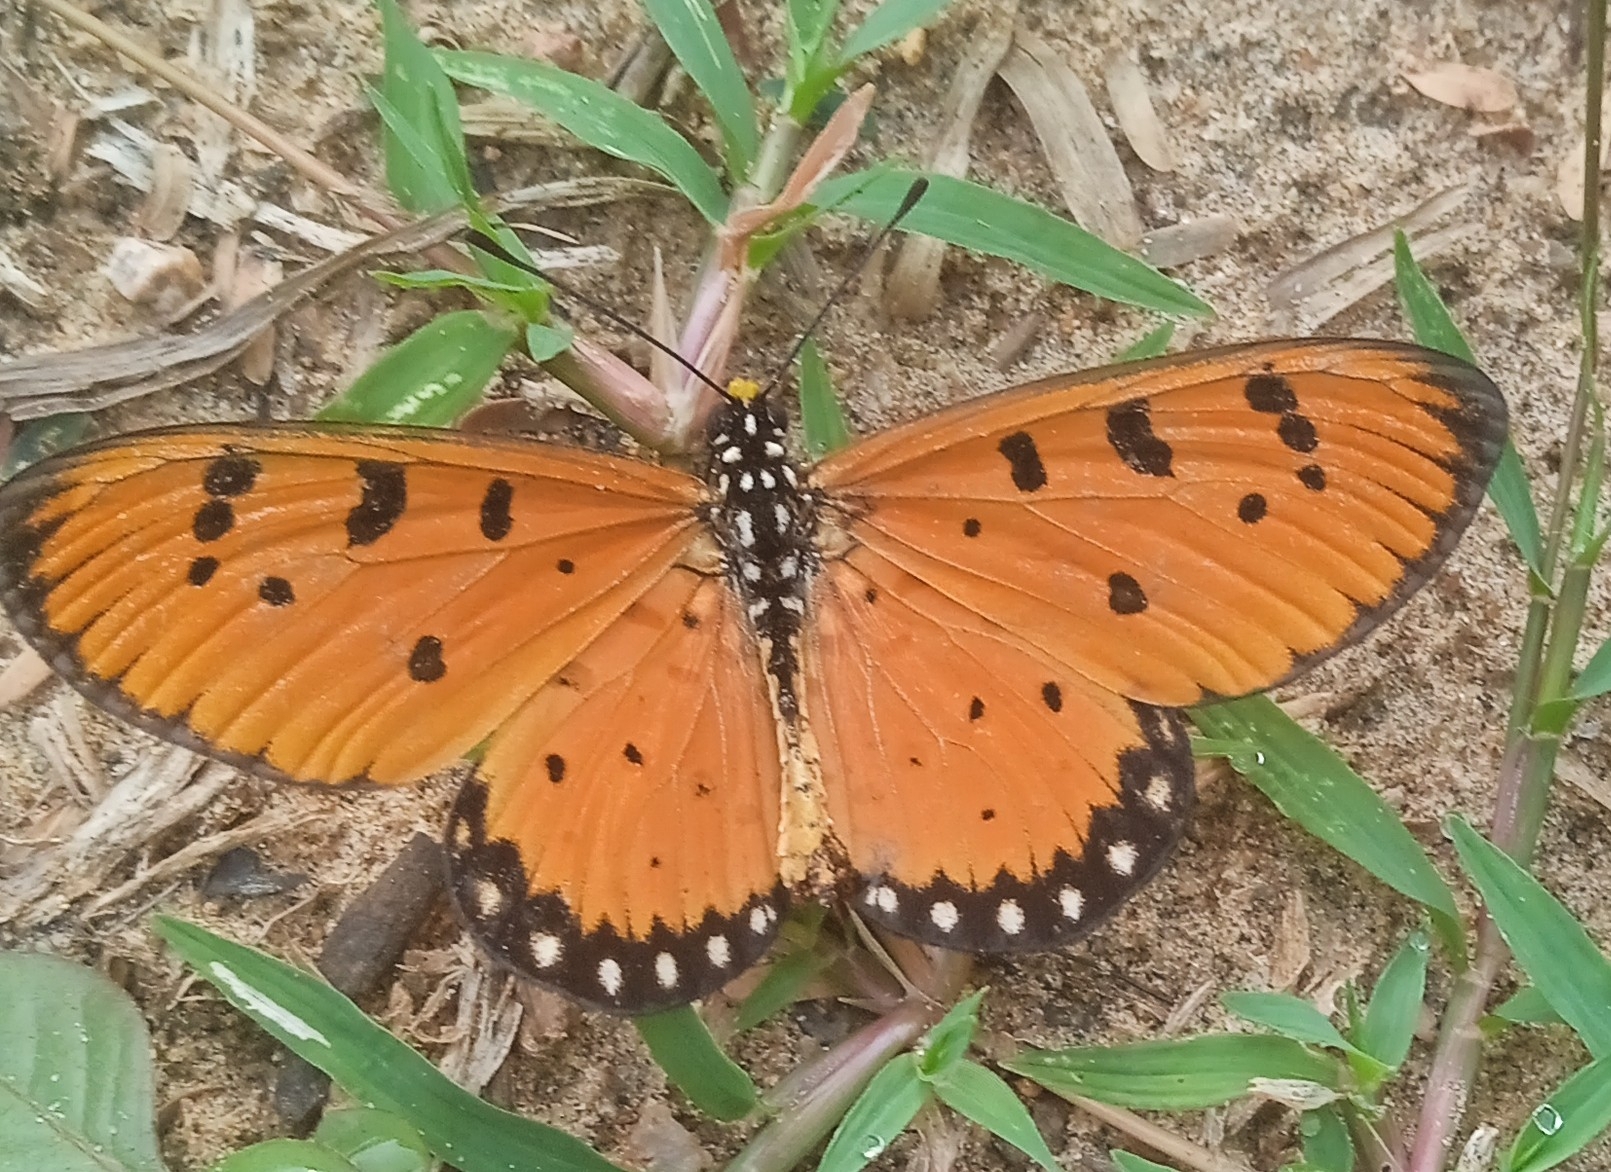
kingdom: Animalia
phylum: Arthropoda
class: Insecta
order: Lepidoptera
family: Nymphalidae
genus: Acraea
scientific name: Acraea terpsicore
